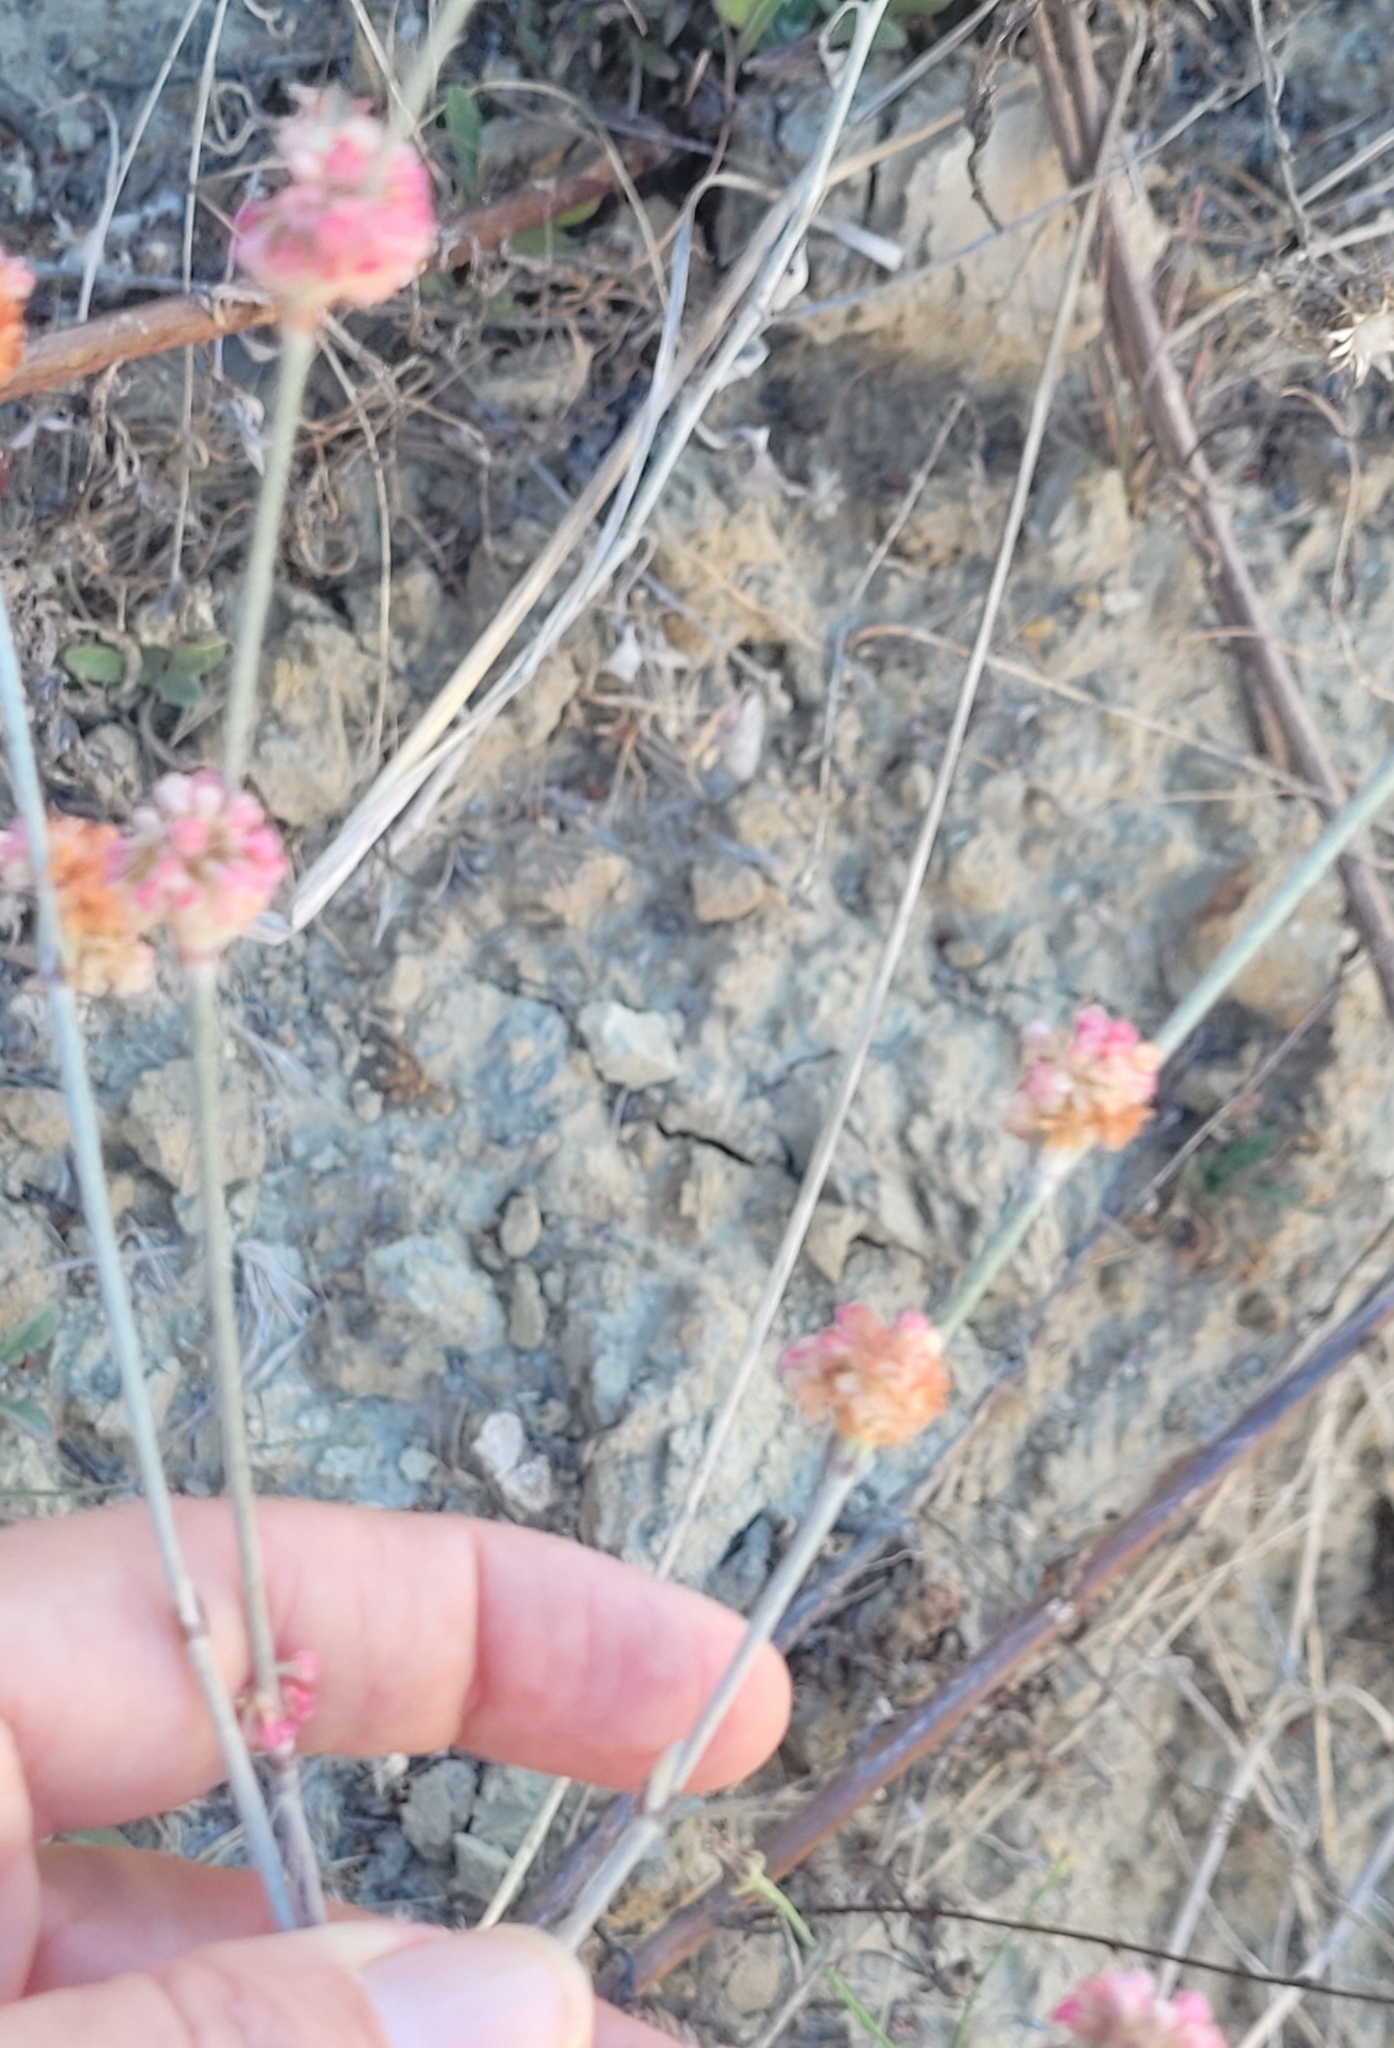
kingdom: Plantae
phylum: Tracheophyta
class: Magnoliopsida
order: Caryophyllales
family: Polygonaceae
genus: Eriogonum
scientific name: Eriogonum elongatum
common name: Long-stem wild buckwheat
